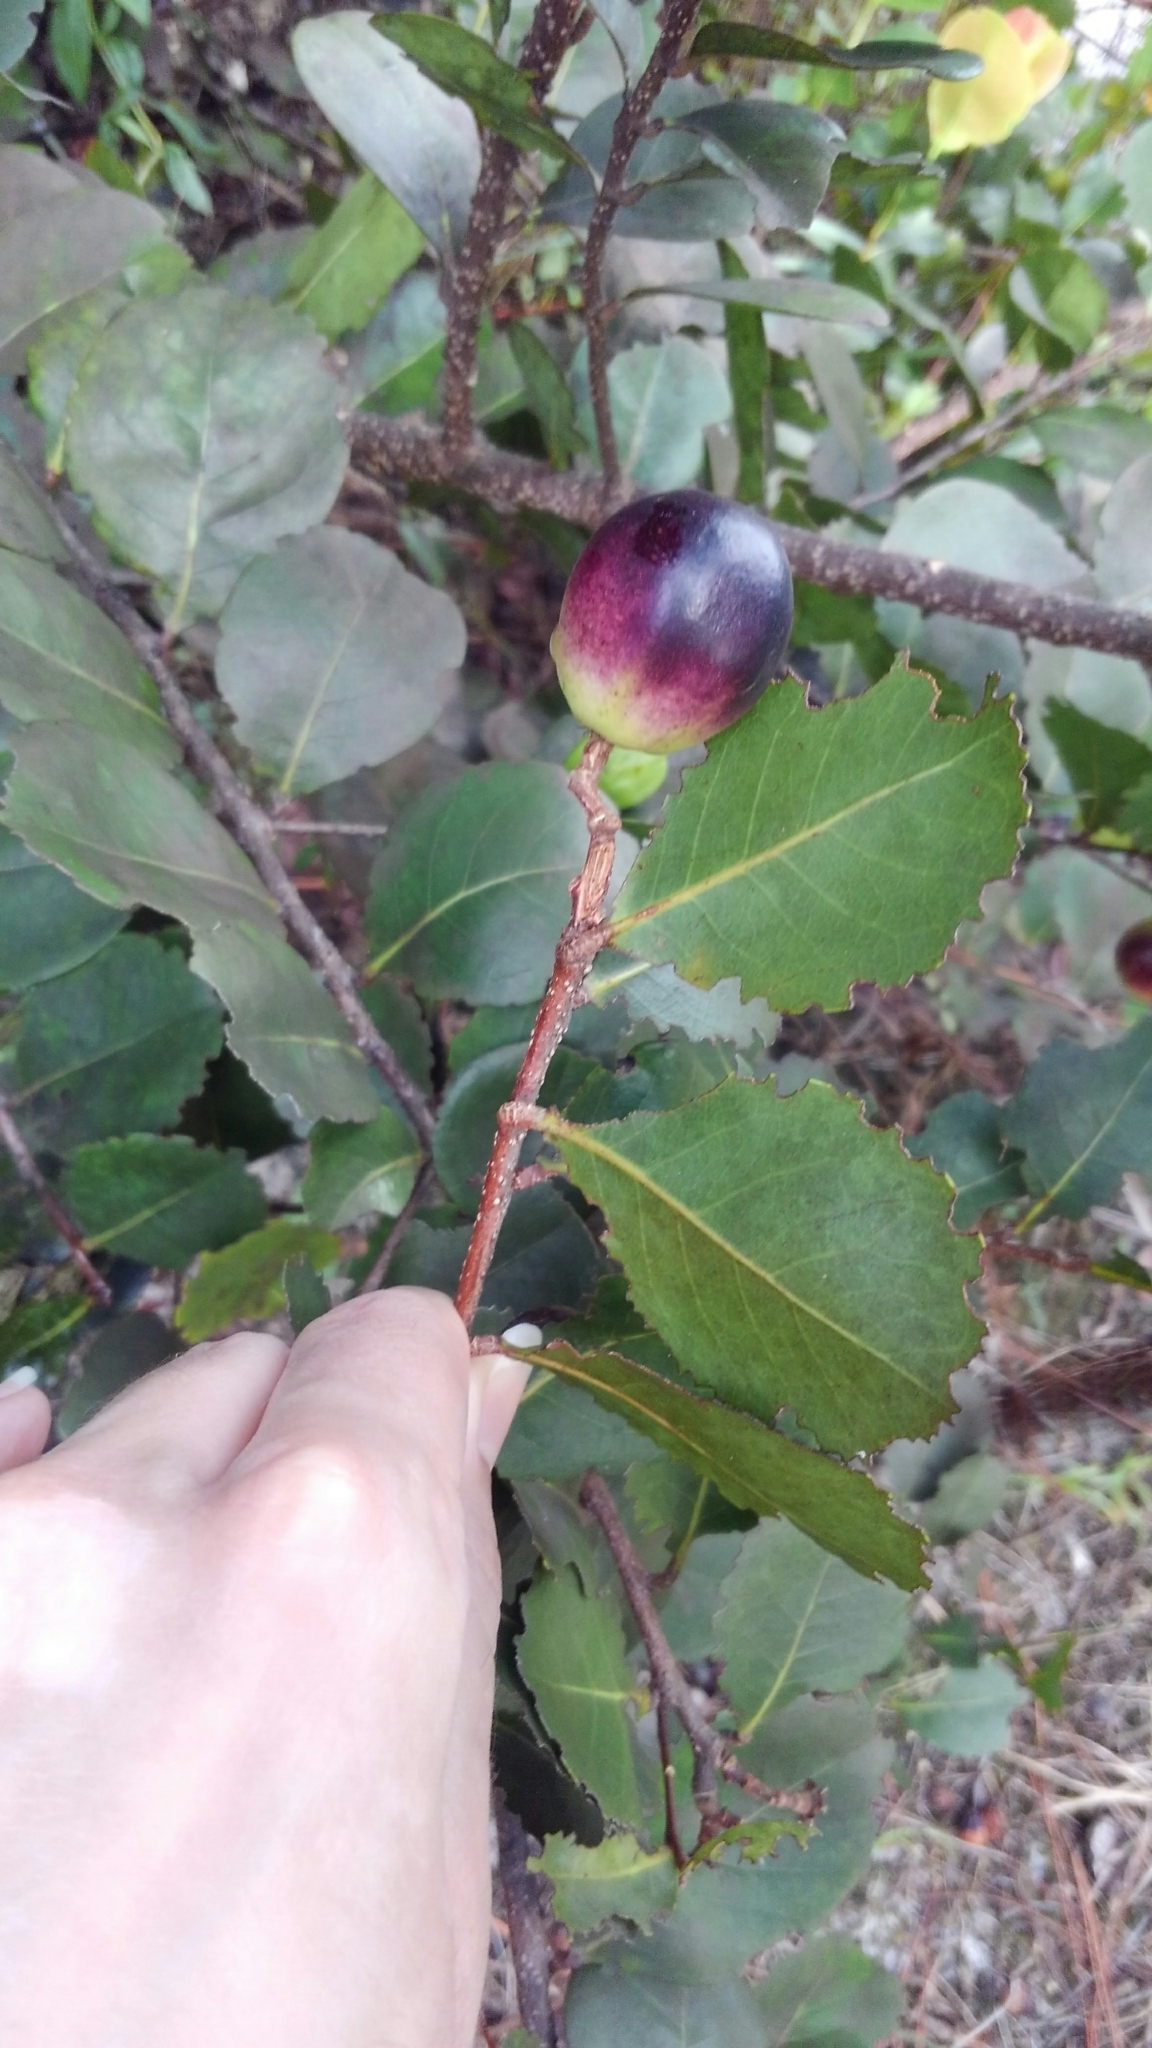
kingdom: Plantae
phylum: Tracheophyta
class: Magnoliopsida
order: Malpighiales
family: Chrysobalanaceae
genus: Chrysobalanus
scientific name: Chrysobalanus icaco
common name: Coco plum
